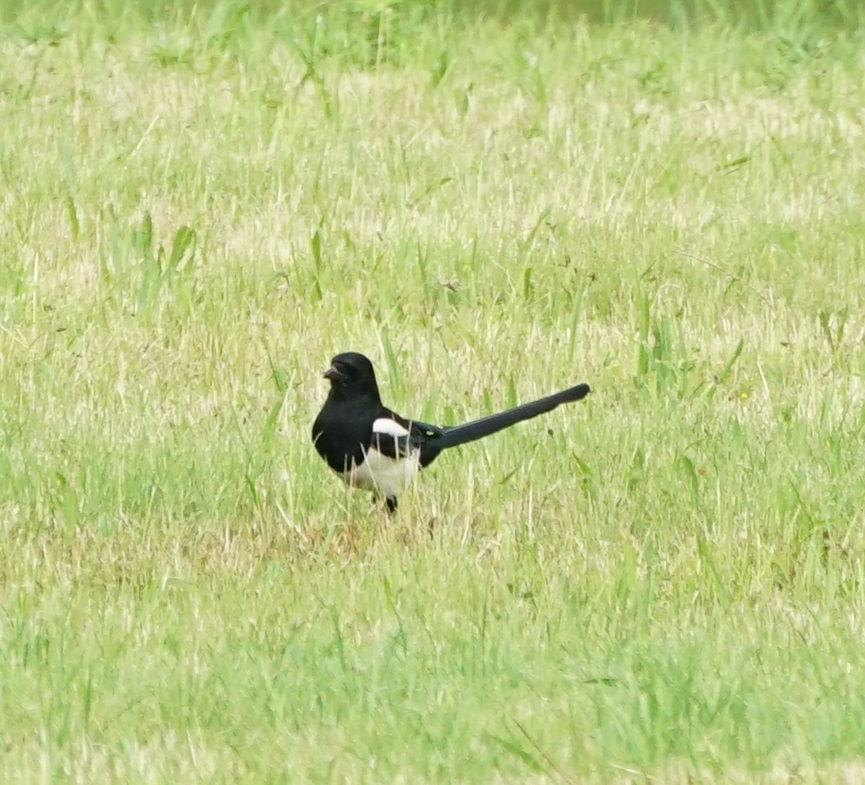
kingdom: Animalia
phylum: Chordata
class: Aves
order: Passeriformes
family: Corvidae
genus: Pica
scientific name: Pica pica
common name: Eurasian magpie
